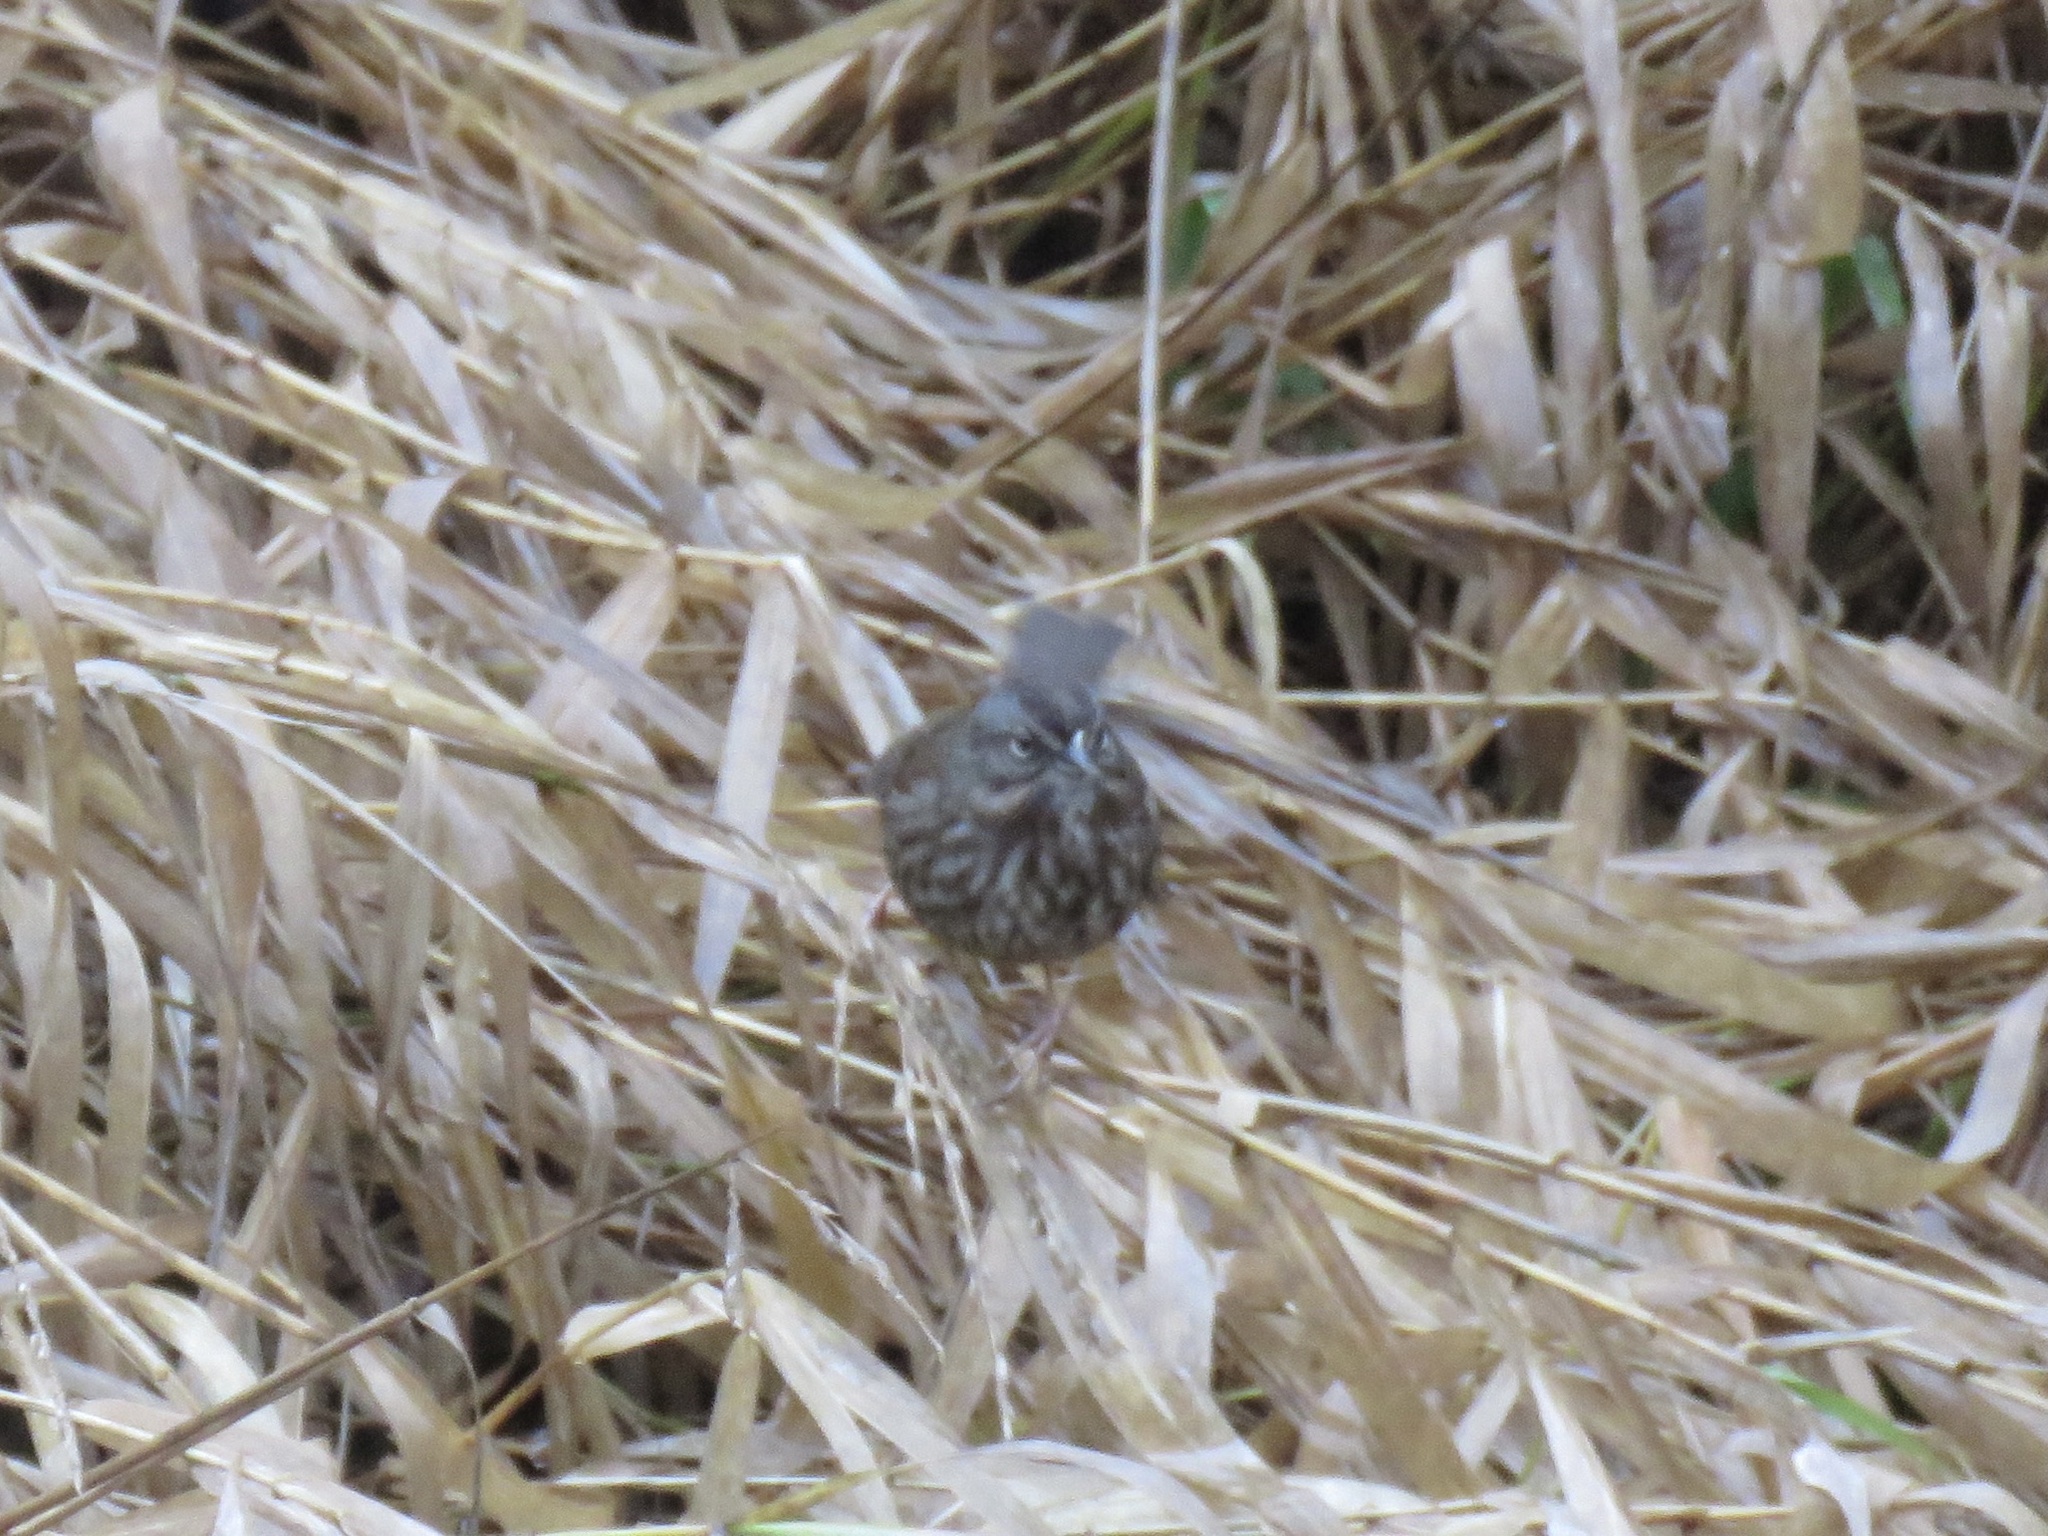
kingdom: Animalia
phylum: Chordata
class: Aves
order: Passeriformes
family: Passerellidae
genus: Melospiza
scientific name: Melospiza melodia
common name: Song sparrow
